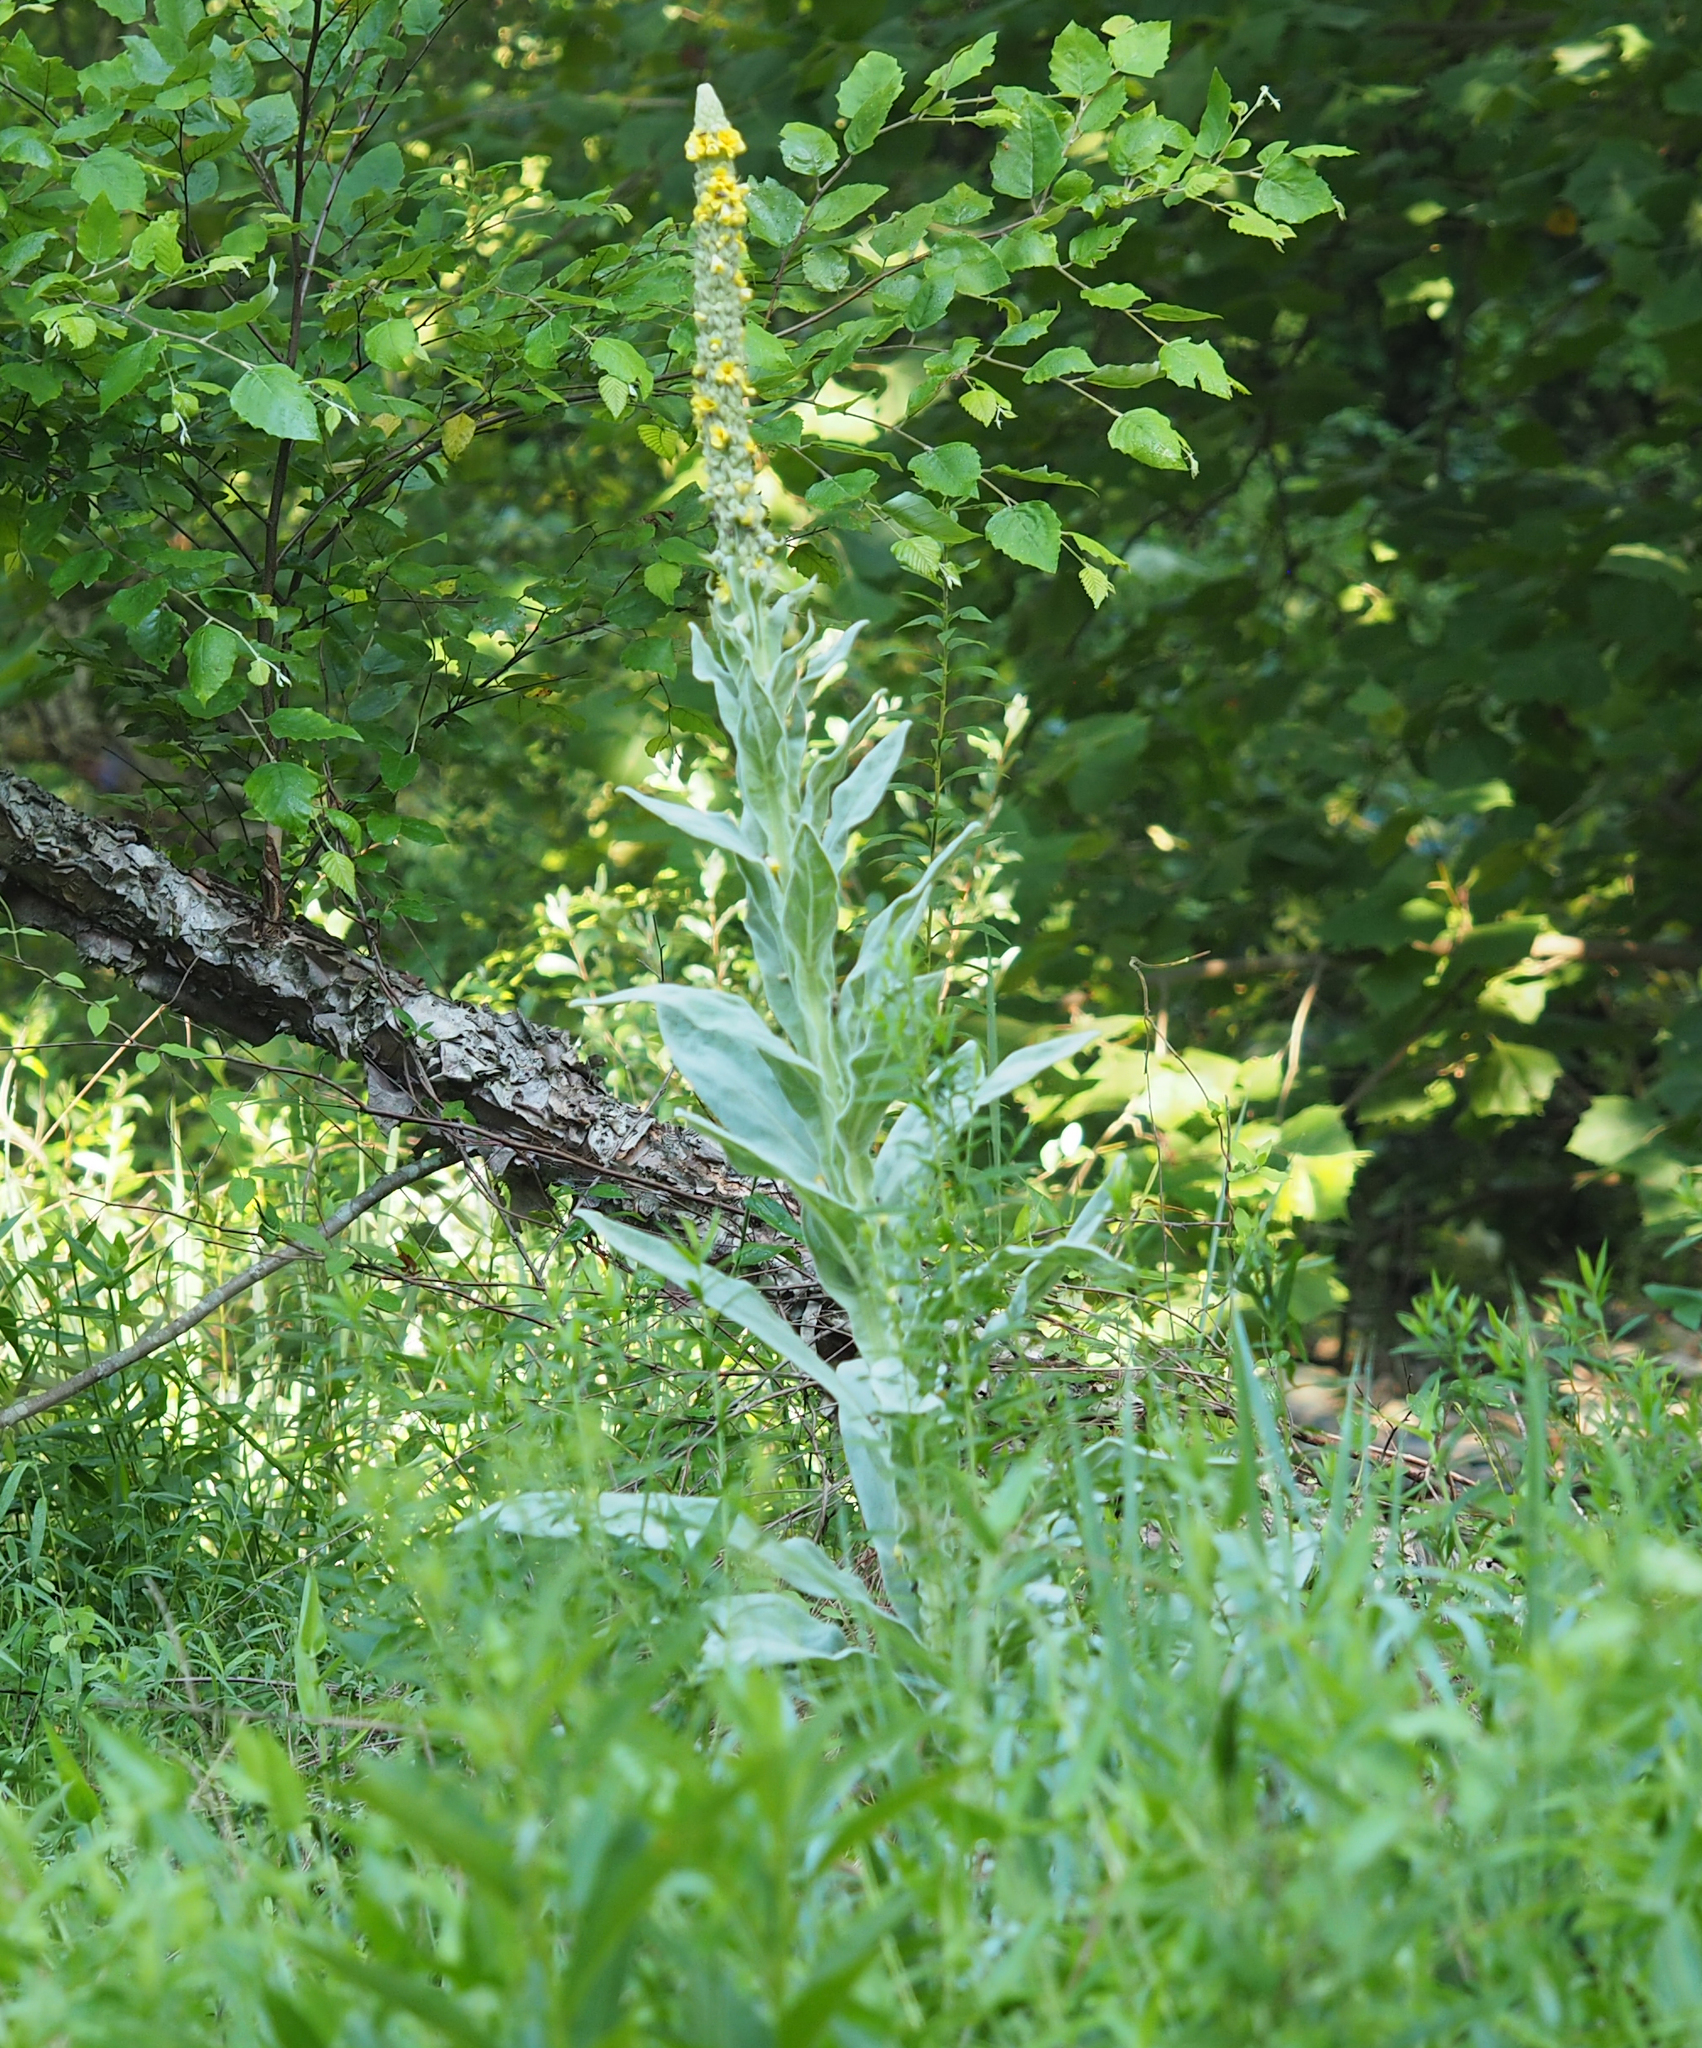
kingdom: Plantae
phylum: Tracheophyta
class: Magnoliopsida
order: Lamiales
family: Scrophulariaceae
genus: Verbascum
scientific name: Verbascum thapsus
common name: Common mullein
